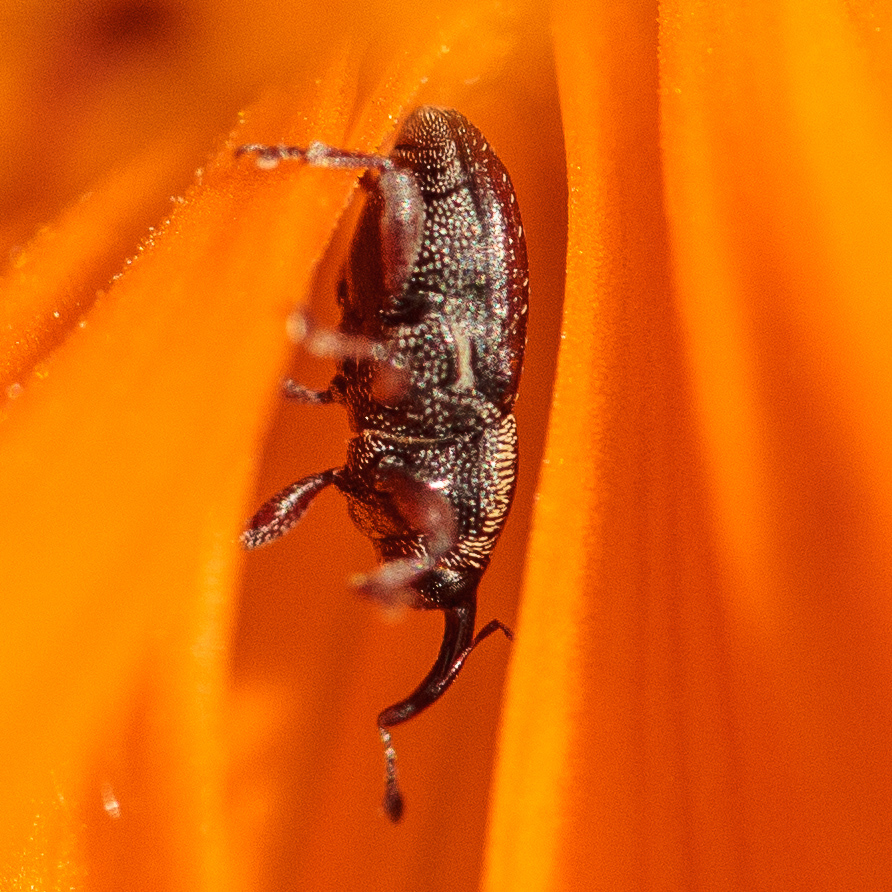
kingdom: Animalia
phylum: Arthropoda
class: Insecta
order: Coleoptera
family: Curculionidae
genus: Apinocis
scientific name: Apinocis
